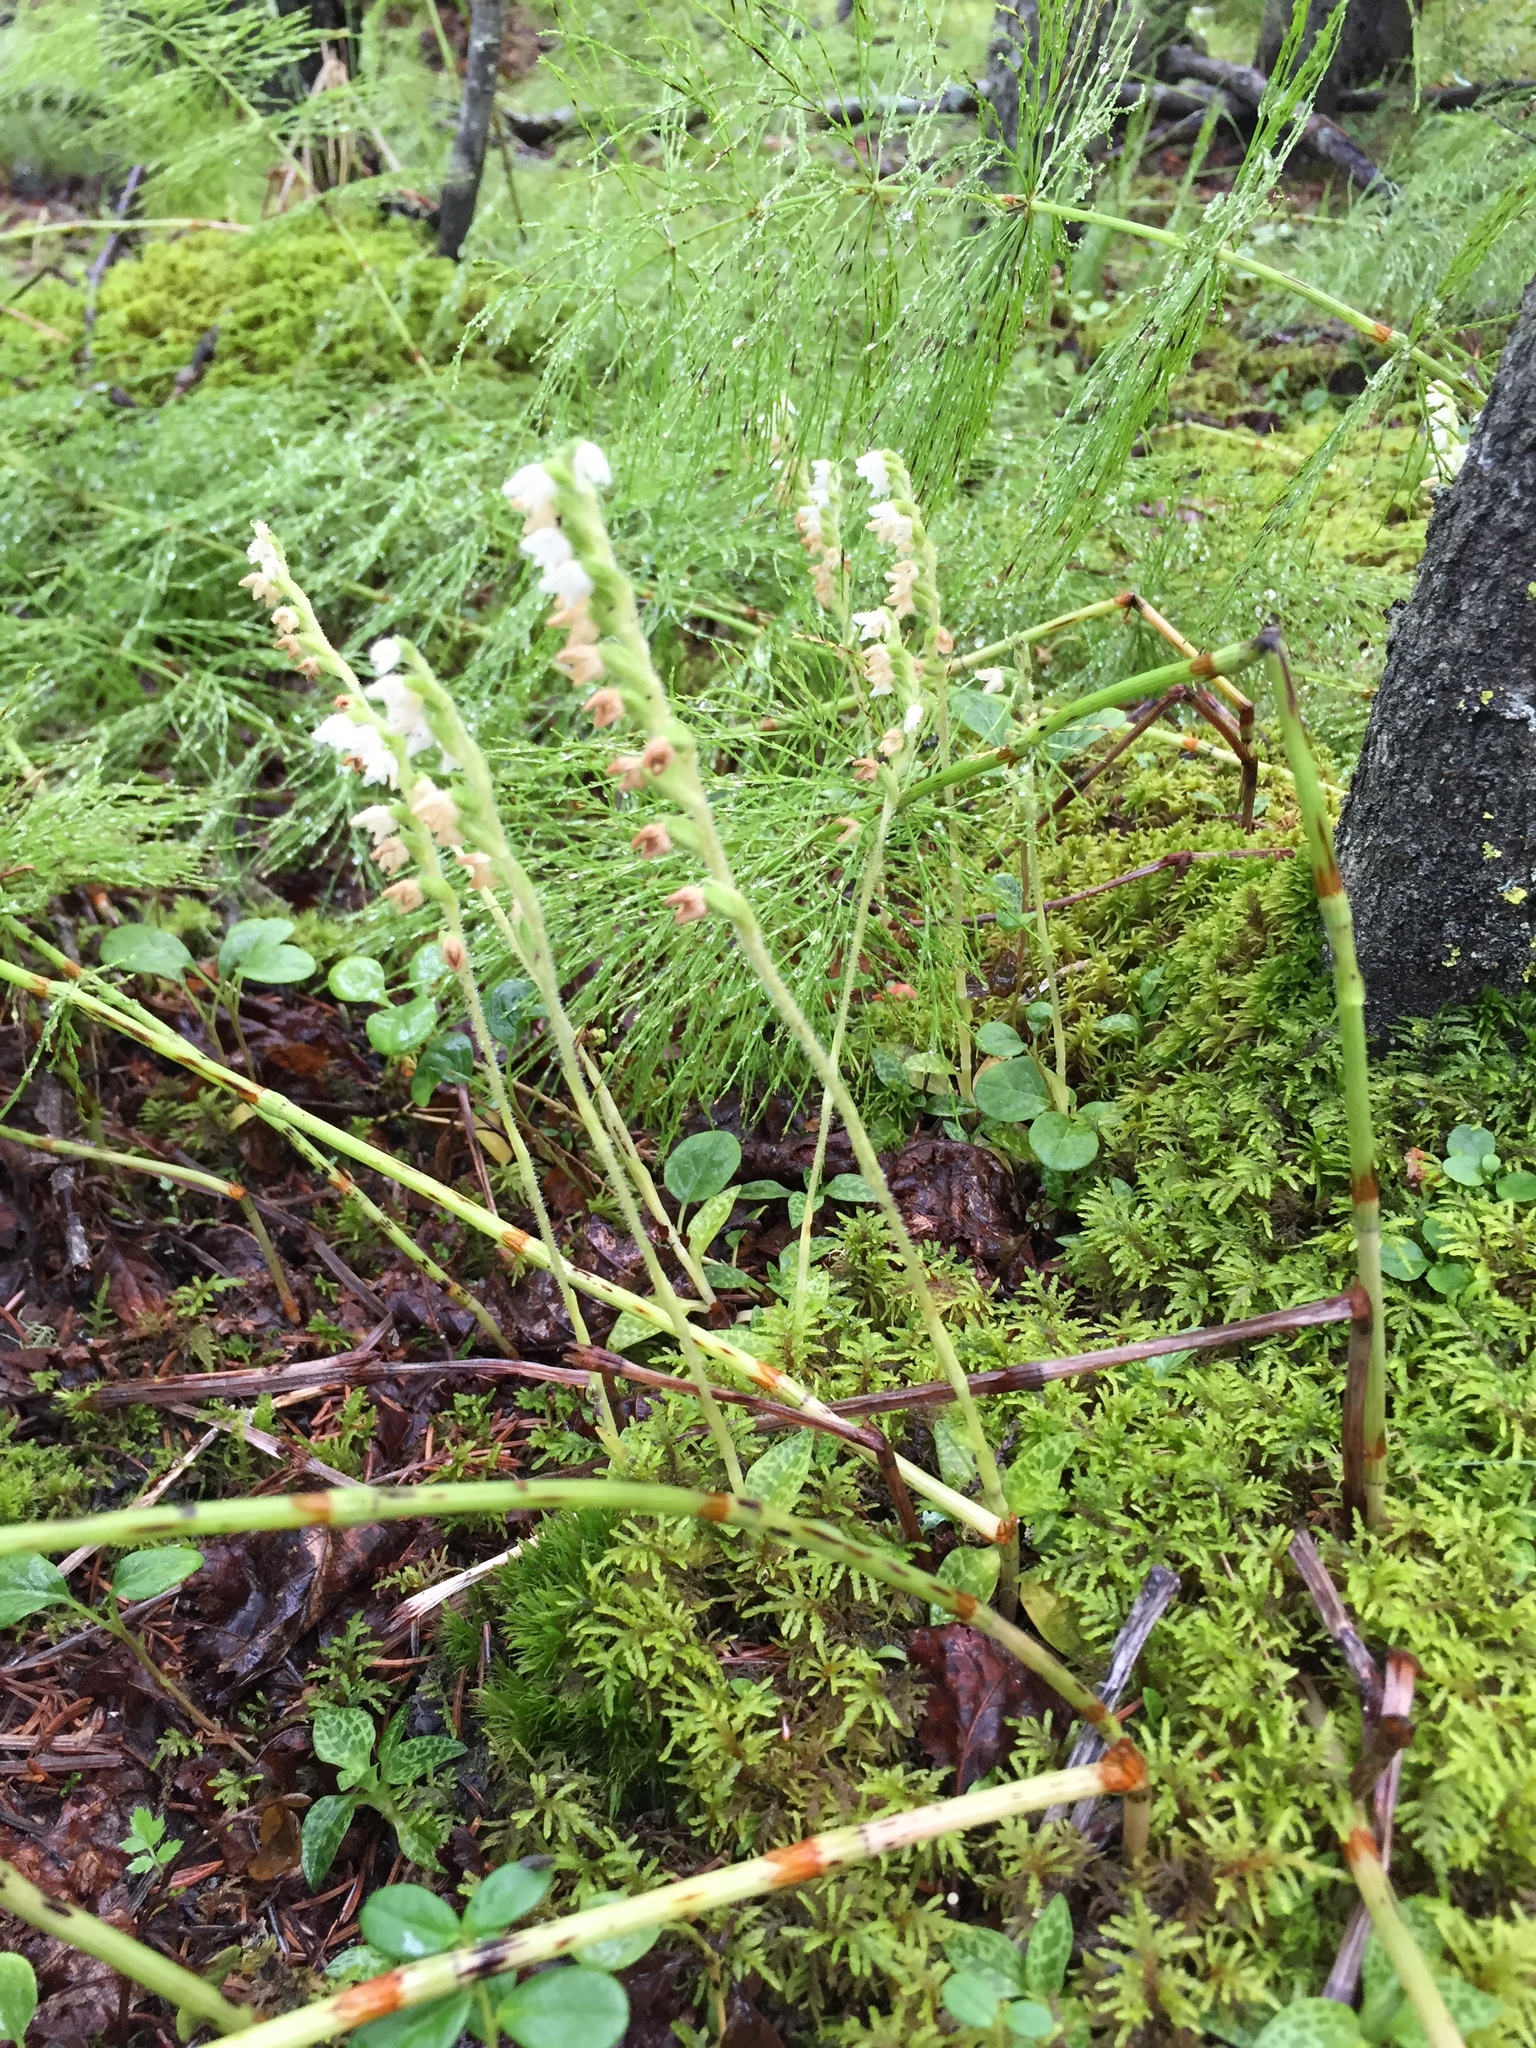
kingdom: Plantae
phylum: Tracheophyta
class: Liliopsida
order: Asparagales
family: Orchidaceae
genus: Goodyera
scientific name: Goodyera repens
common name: Creeping lady's-tresses
